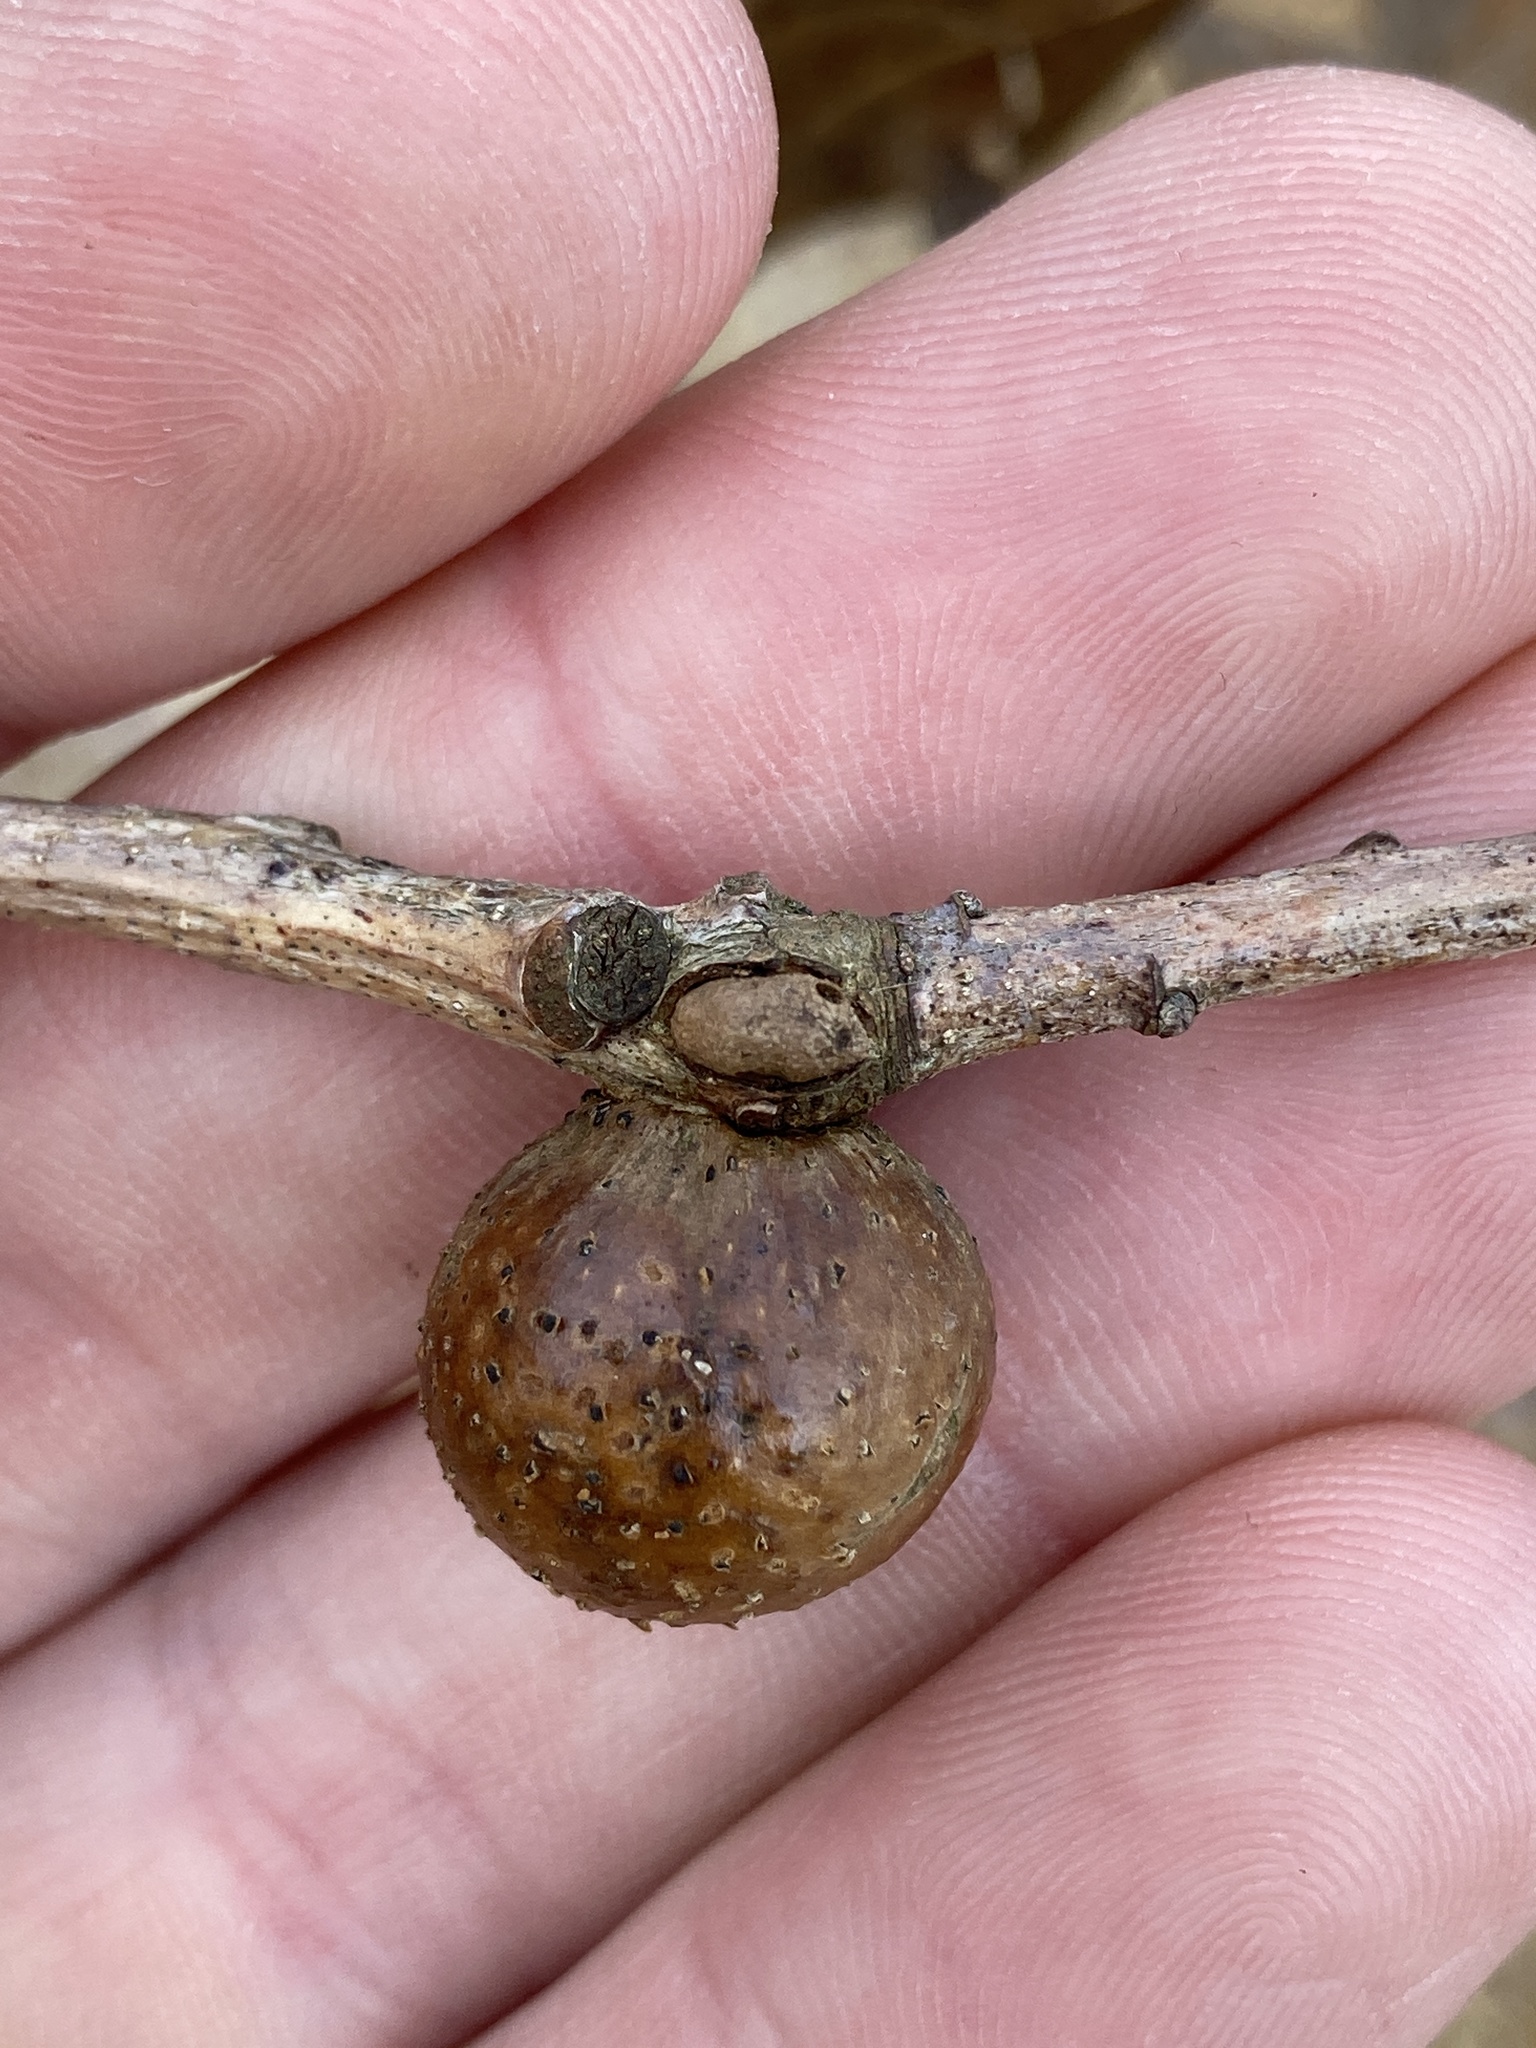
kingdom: Animalia
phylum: Arthropoda
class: Insecta
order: Hymenoptera
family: Cynipidae
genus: Disholcaspis
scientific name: Disholcaspis quercusglobulus
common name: Round bullet gall wasp
